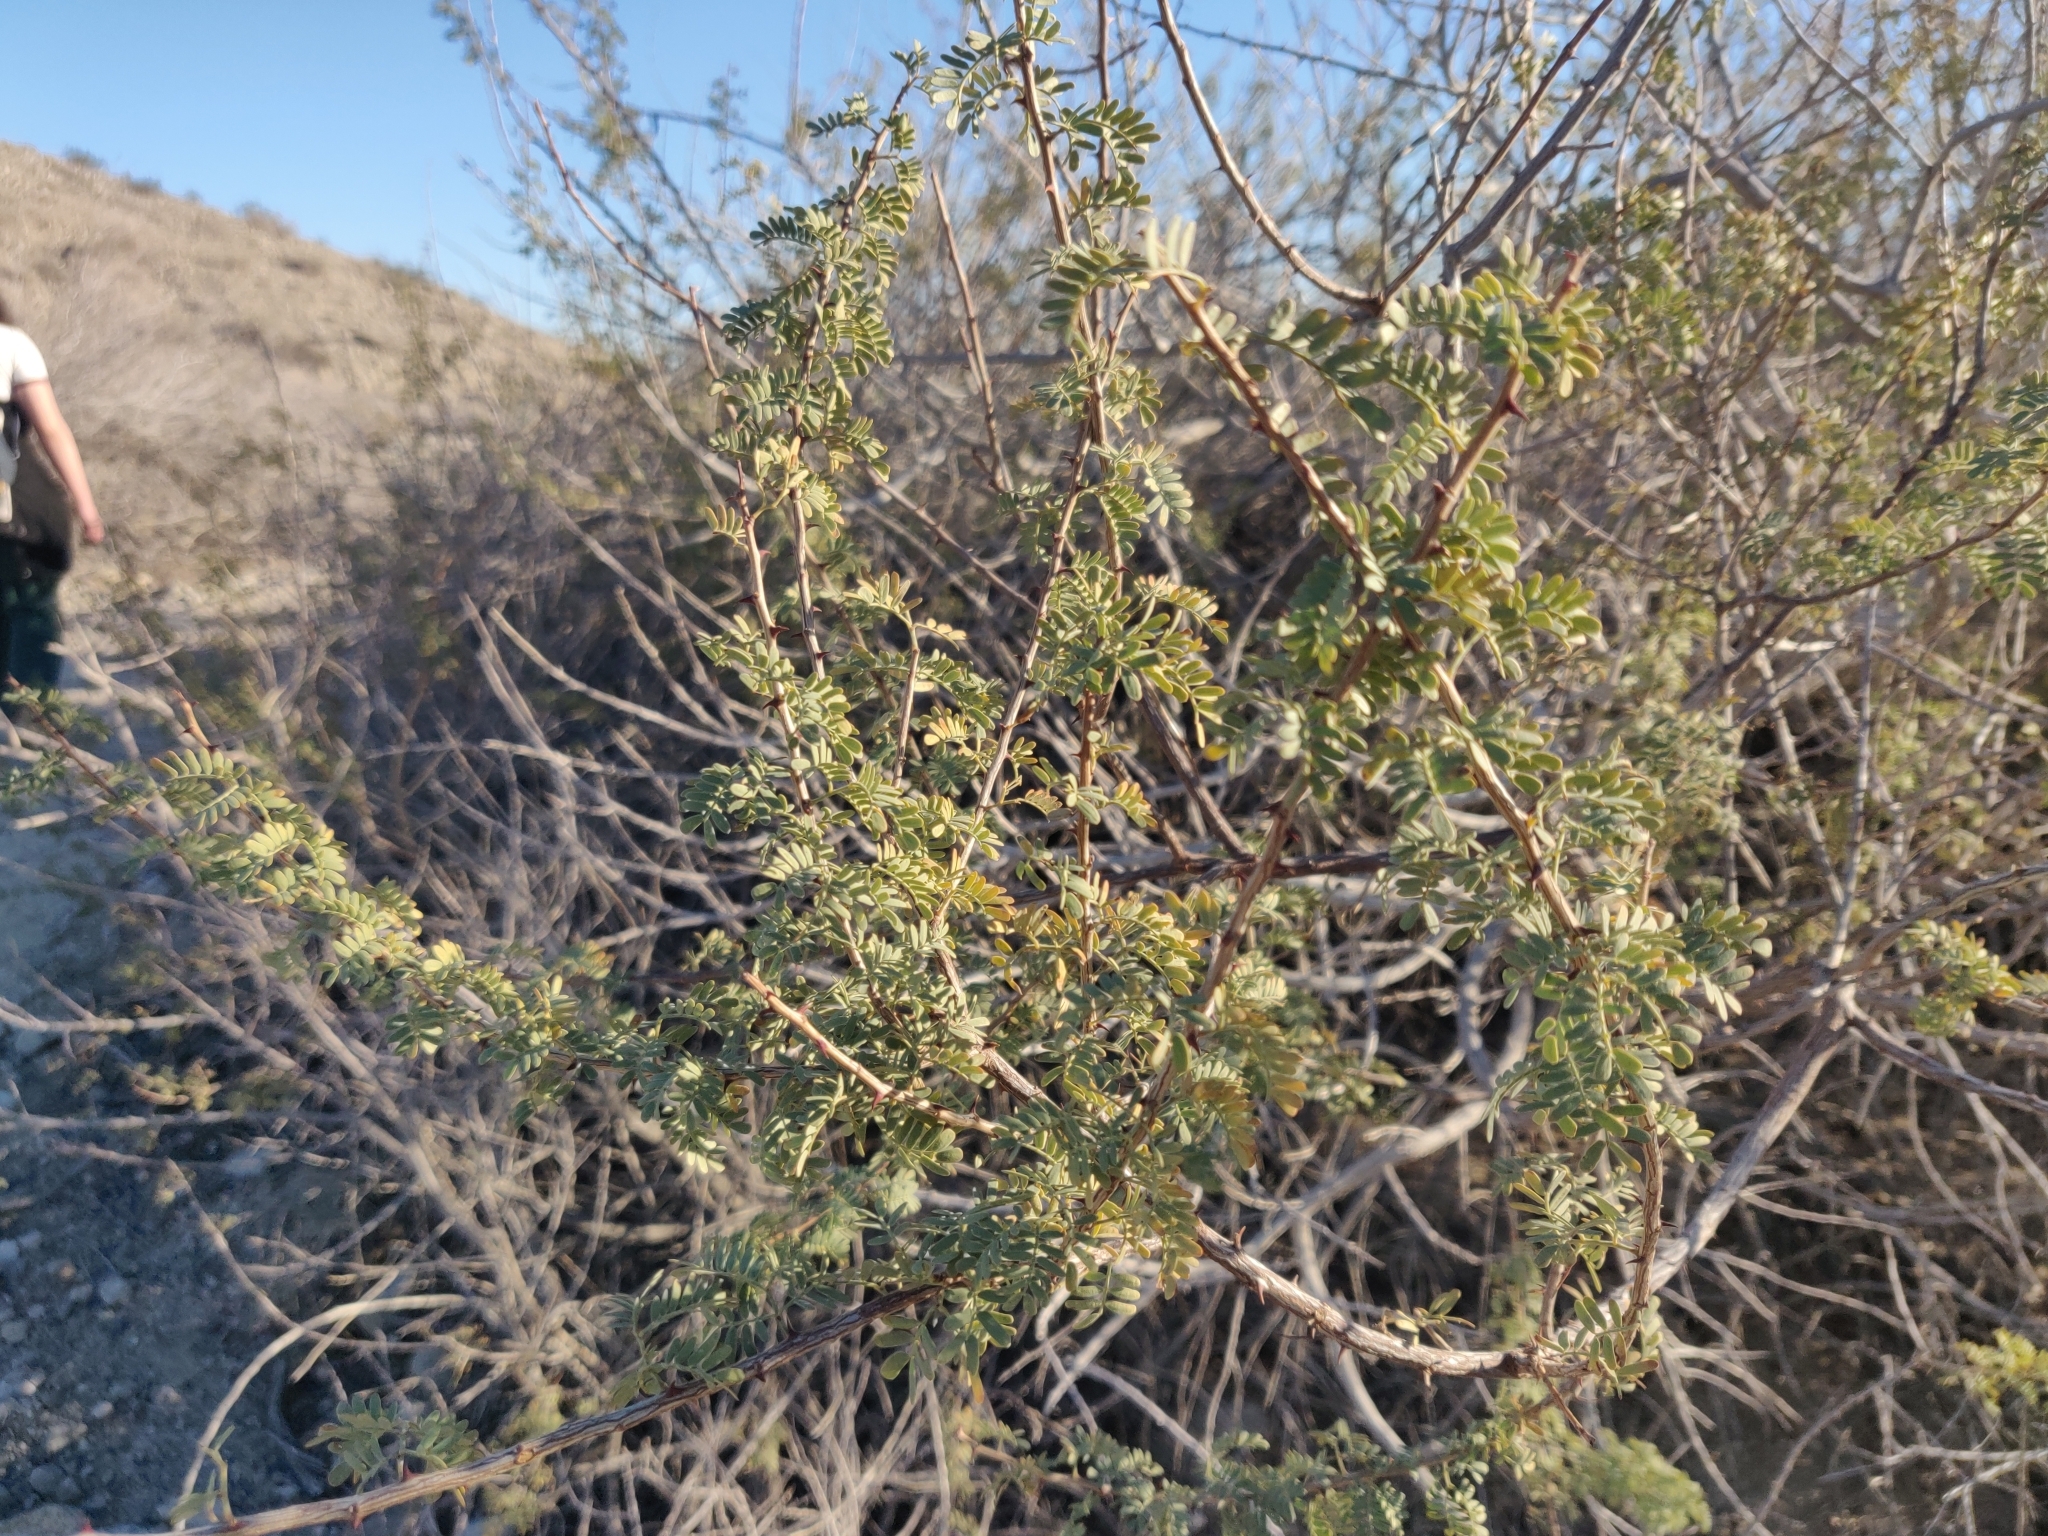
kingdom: Plantae
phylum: Tracheophyta
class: Magnoliopsida
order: Fabales
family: Fabaceae
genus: Senegalia
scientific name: Senegalia greggii
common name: Texas-mimosa
